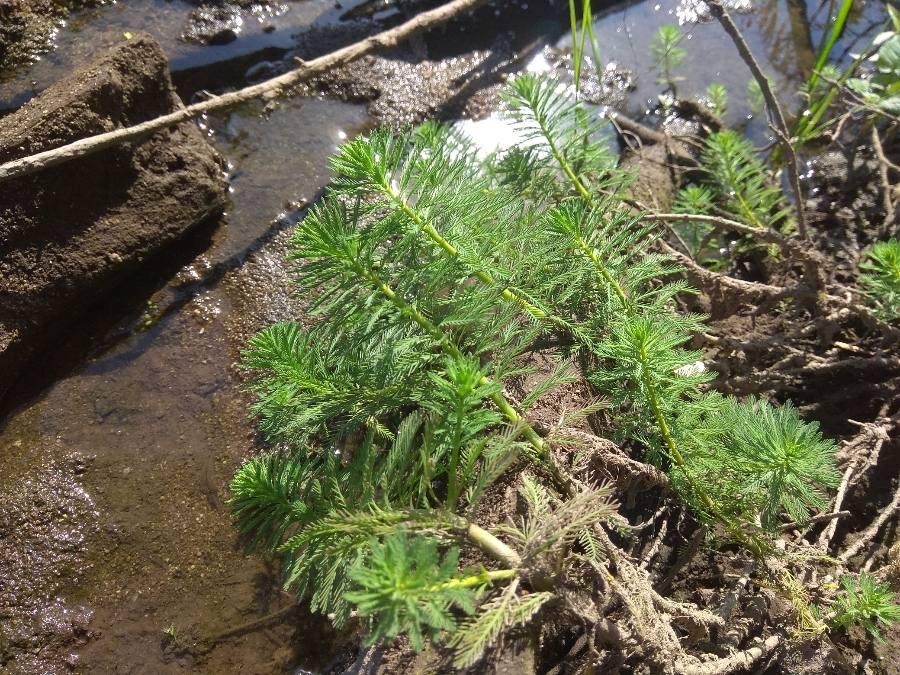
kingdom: Plantae
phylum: Tracheophyta
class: Magnoliopsida
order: Saxifragales
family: Haloragaceae
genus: Myriophyllum
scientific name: Myriophyllum aquaticum
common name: Parrot's feather
